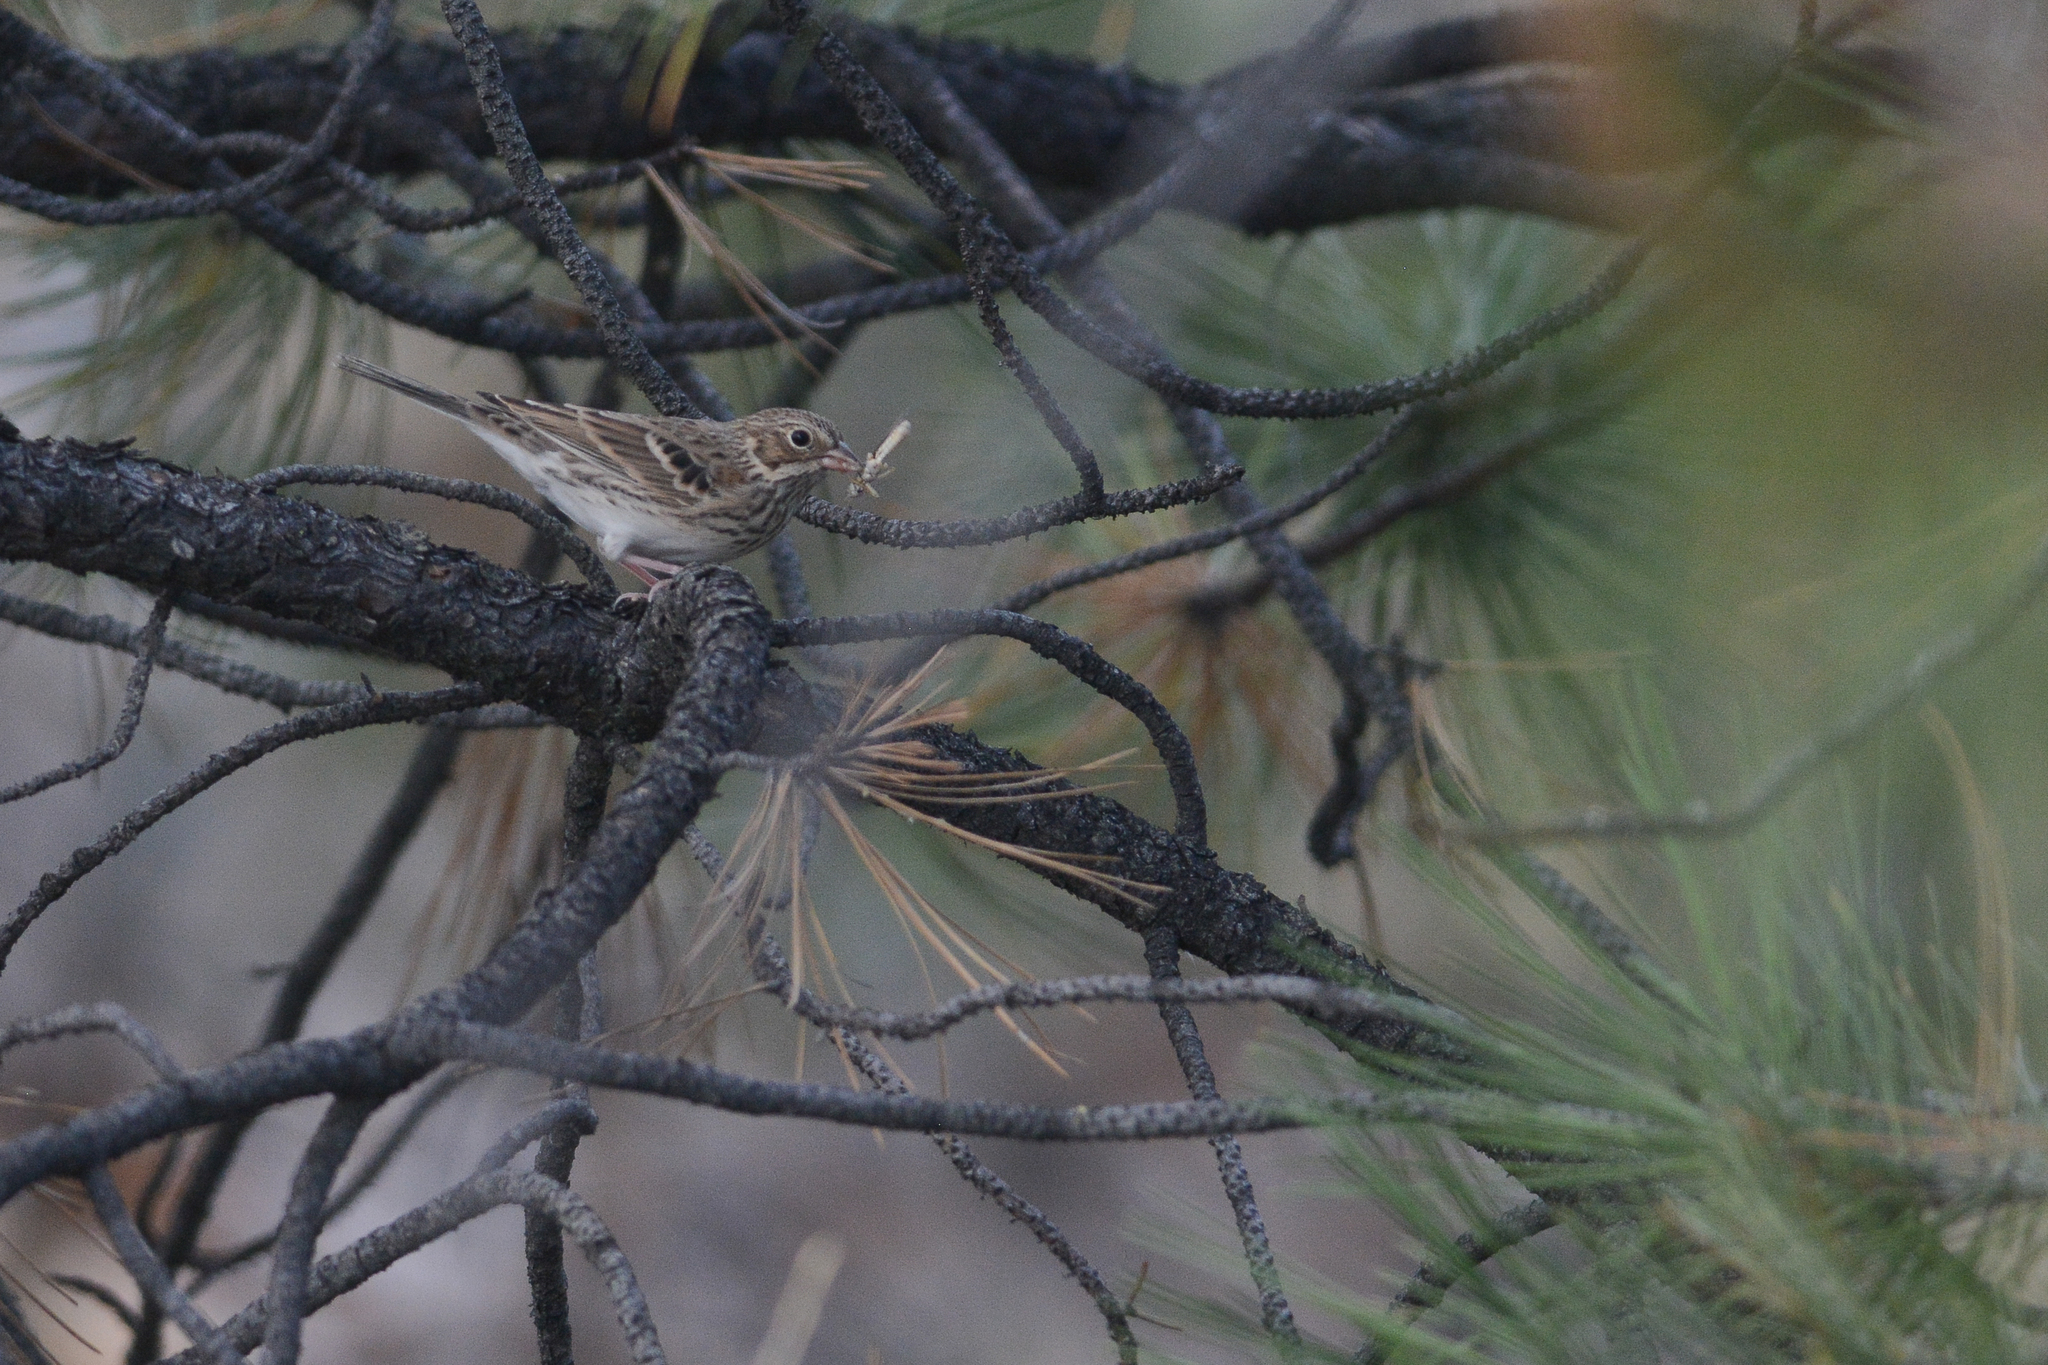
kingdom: Animalia
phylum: Chordata
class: Aves
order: Passeriformes
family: Passerellidae
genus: Pooecetes
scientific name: Pooecetes gramineus
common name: Vesper sparrow
